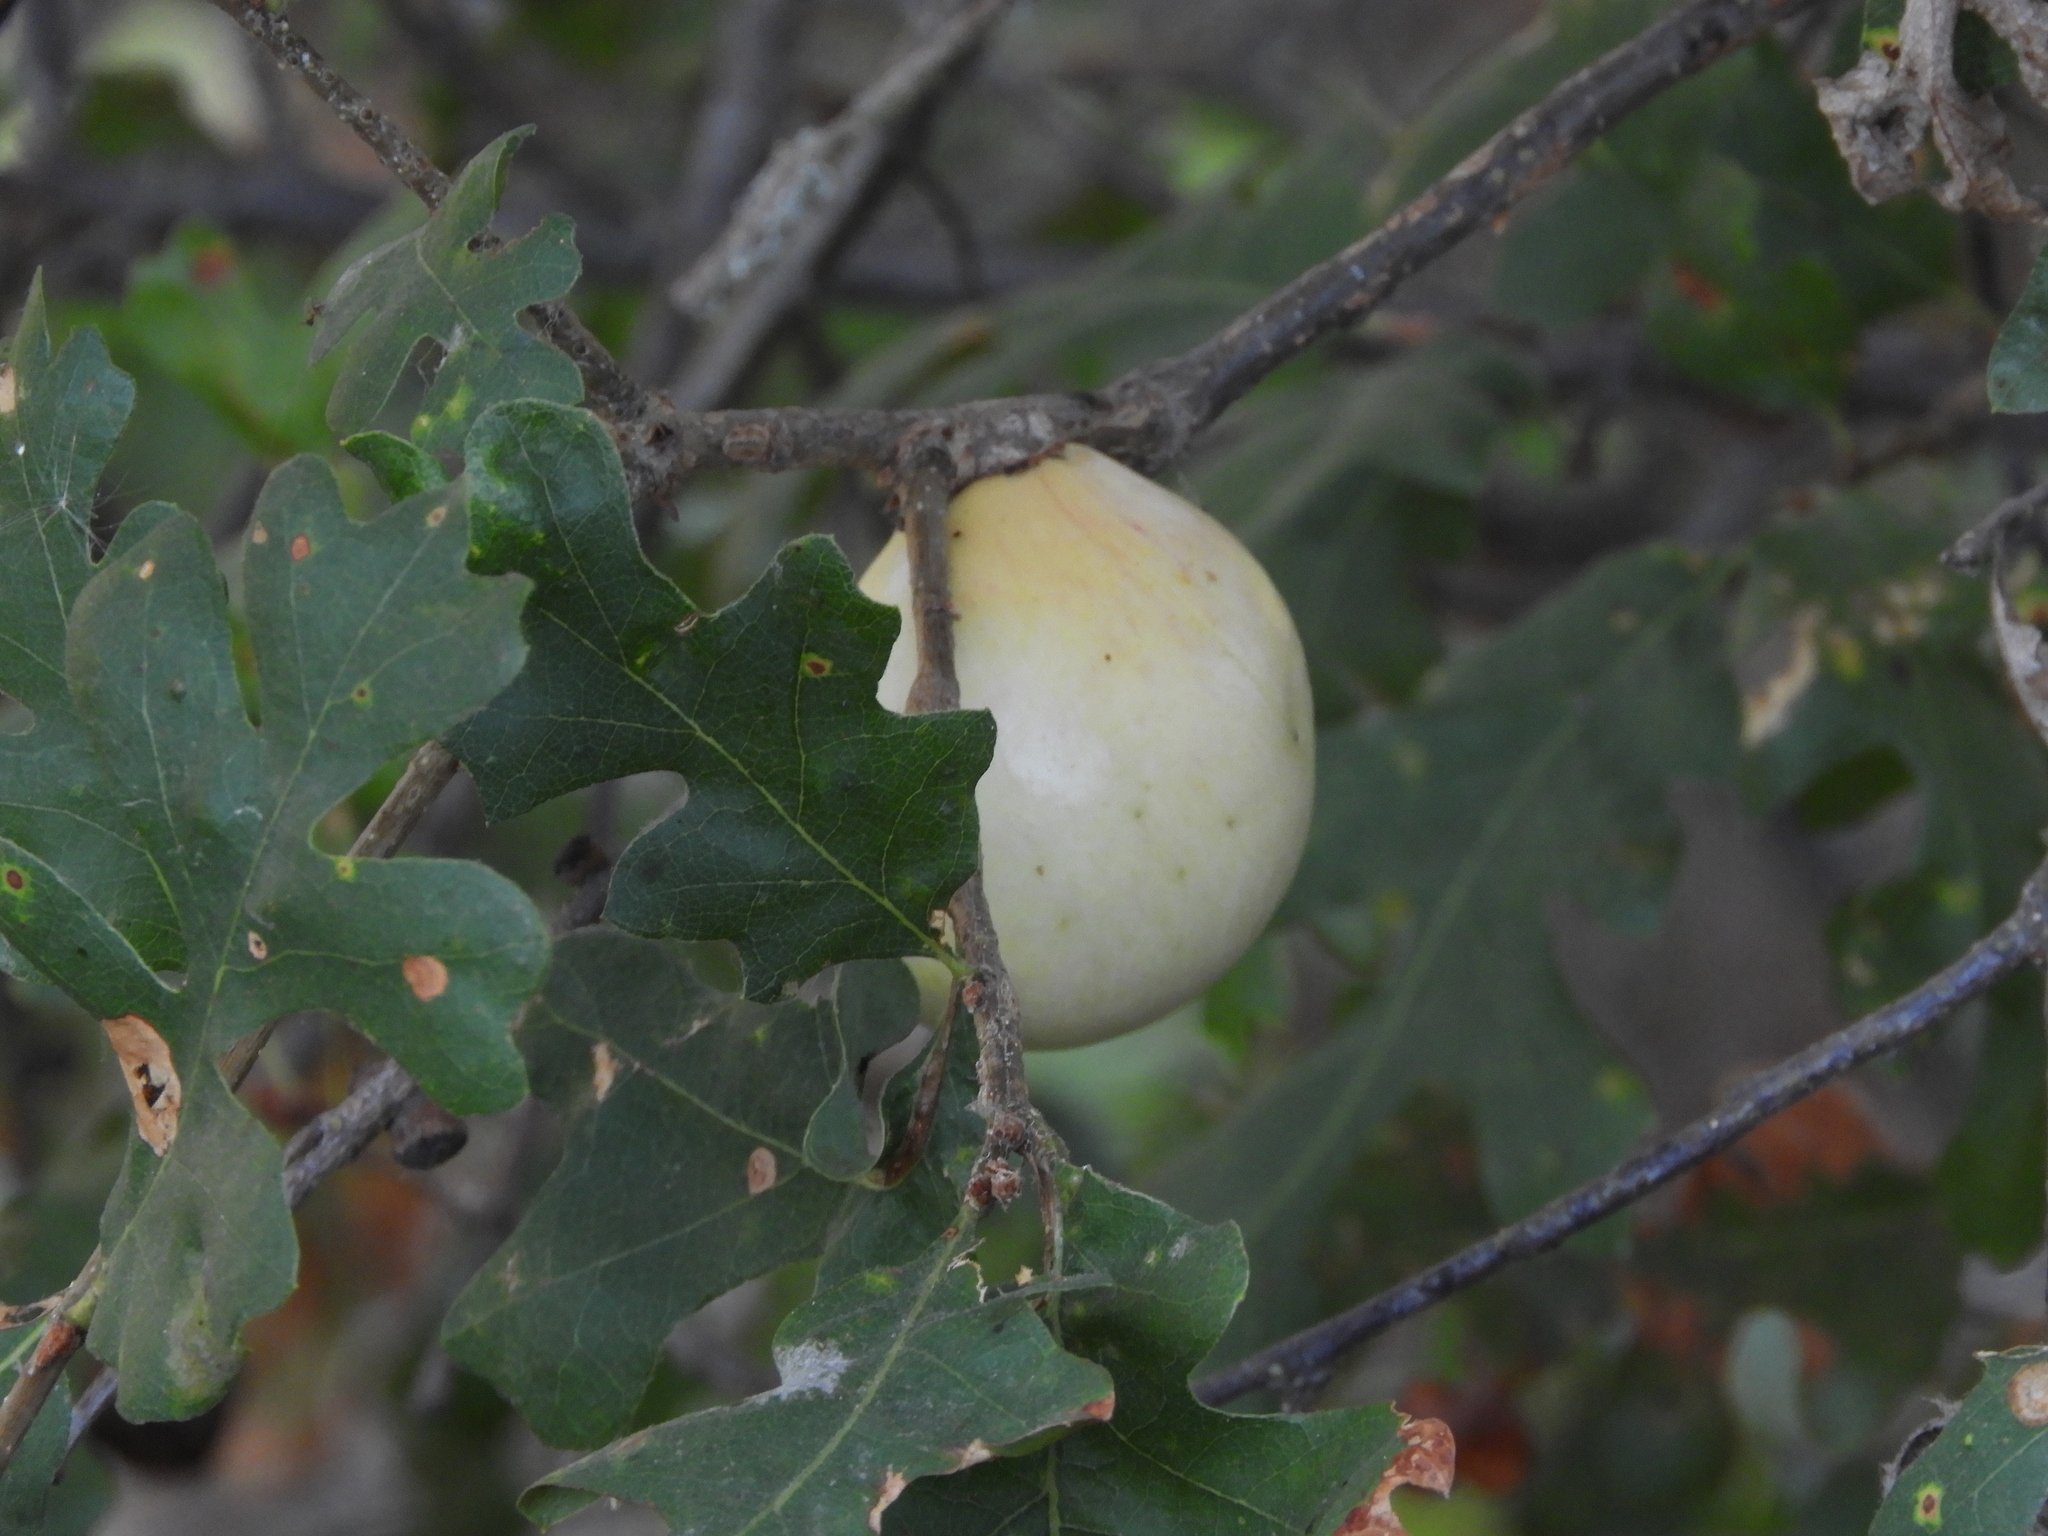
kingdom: Animalia
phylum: Arthropoda
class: Insecta
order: Hymenoptera
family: Cynipidae
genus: Andricus
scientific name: Andricus quercuscalifornicus
